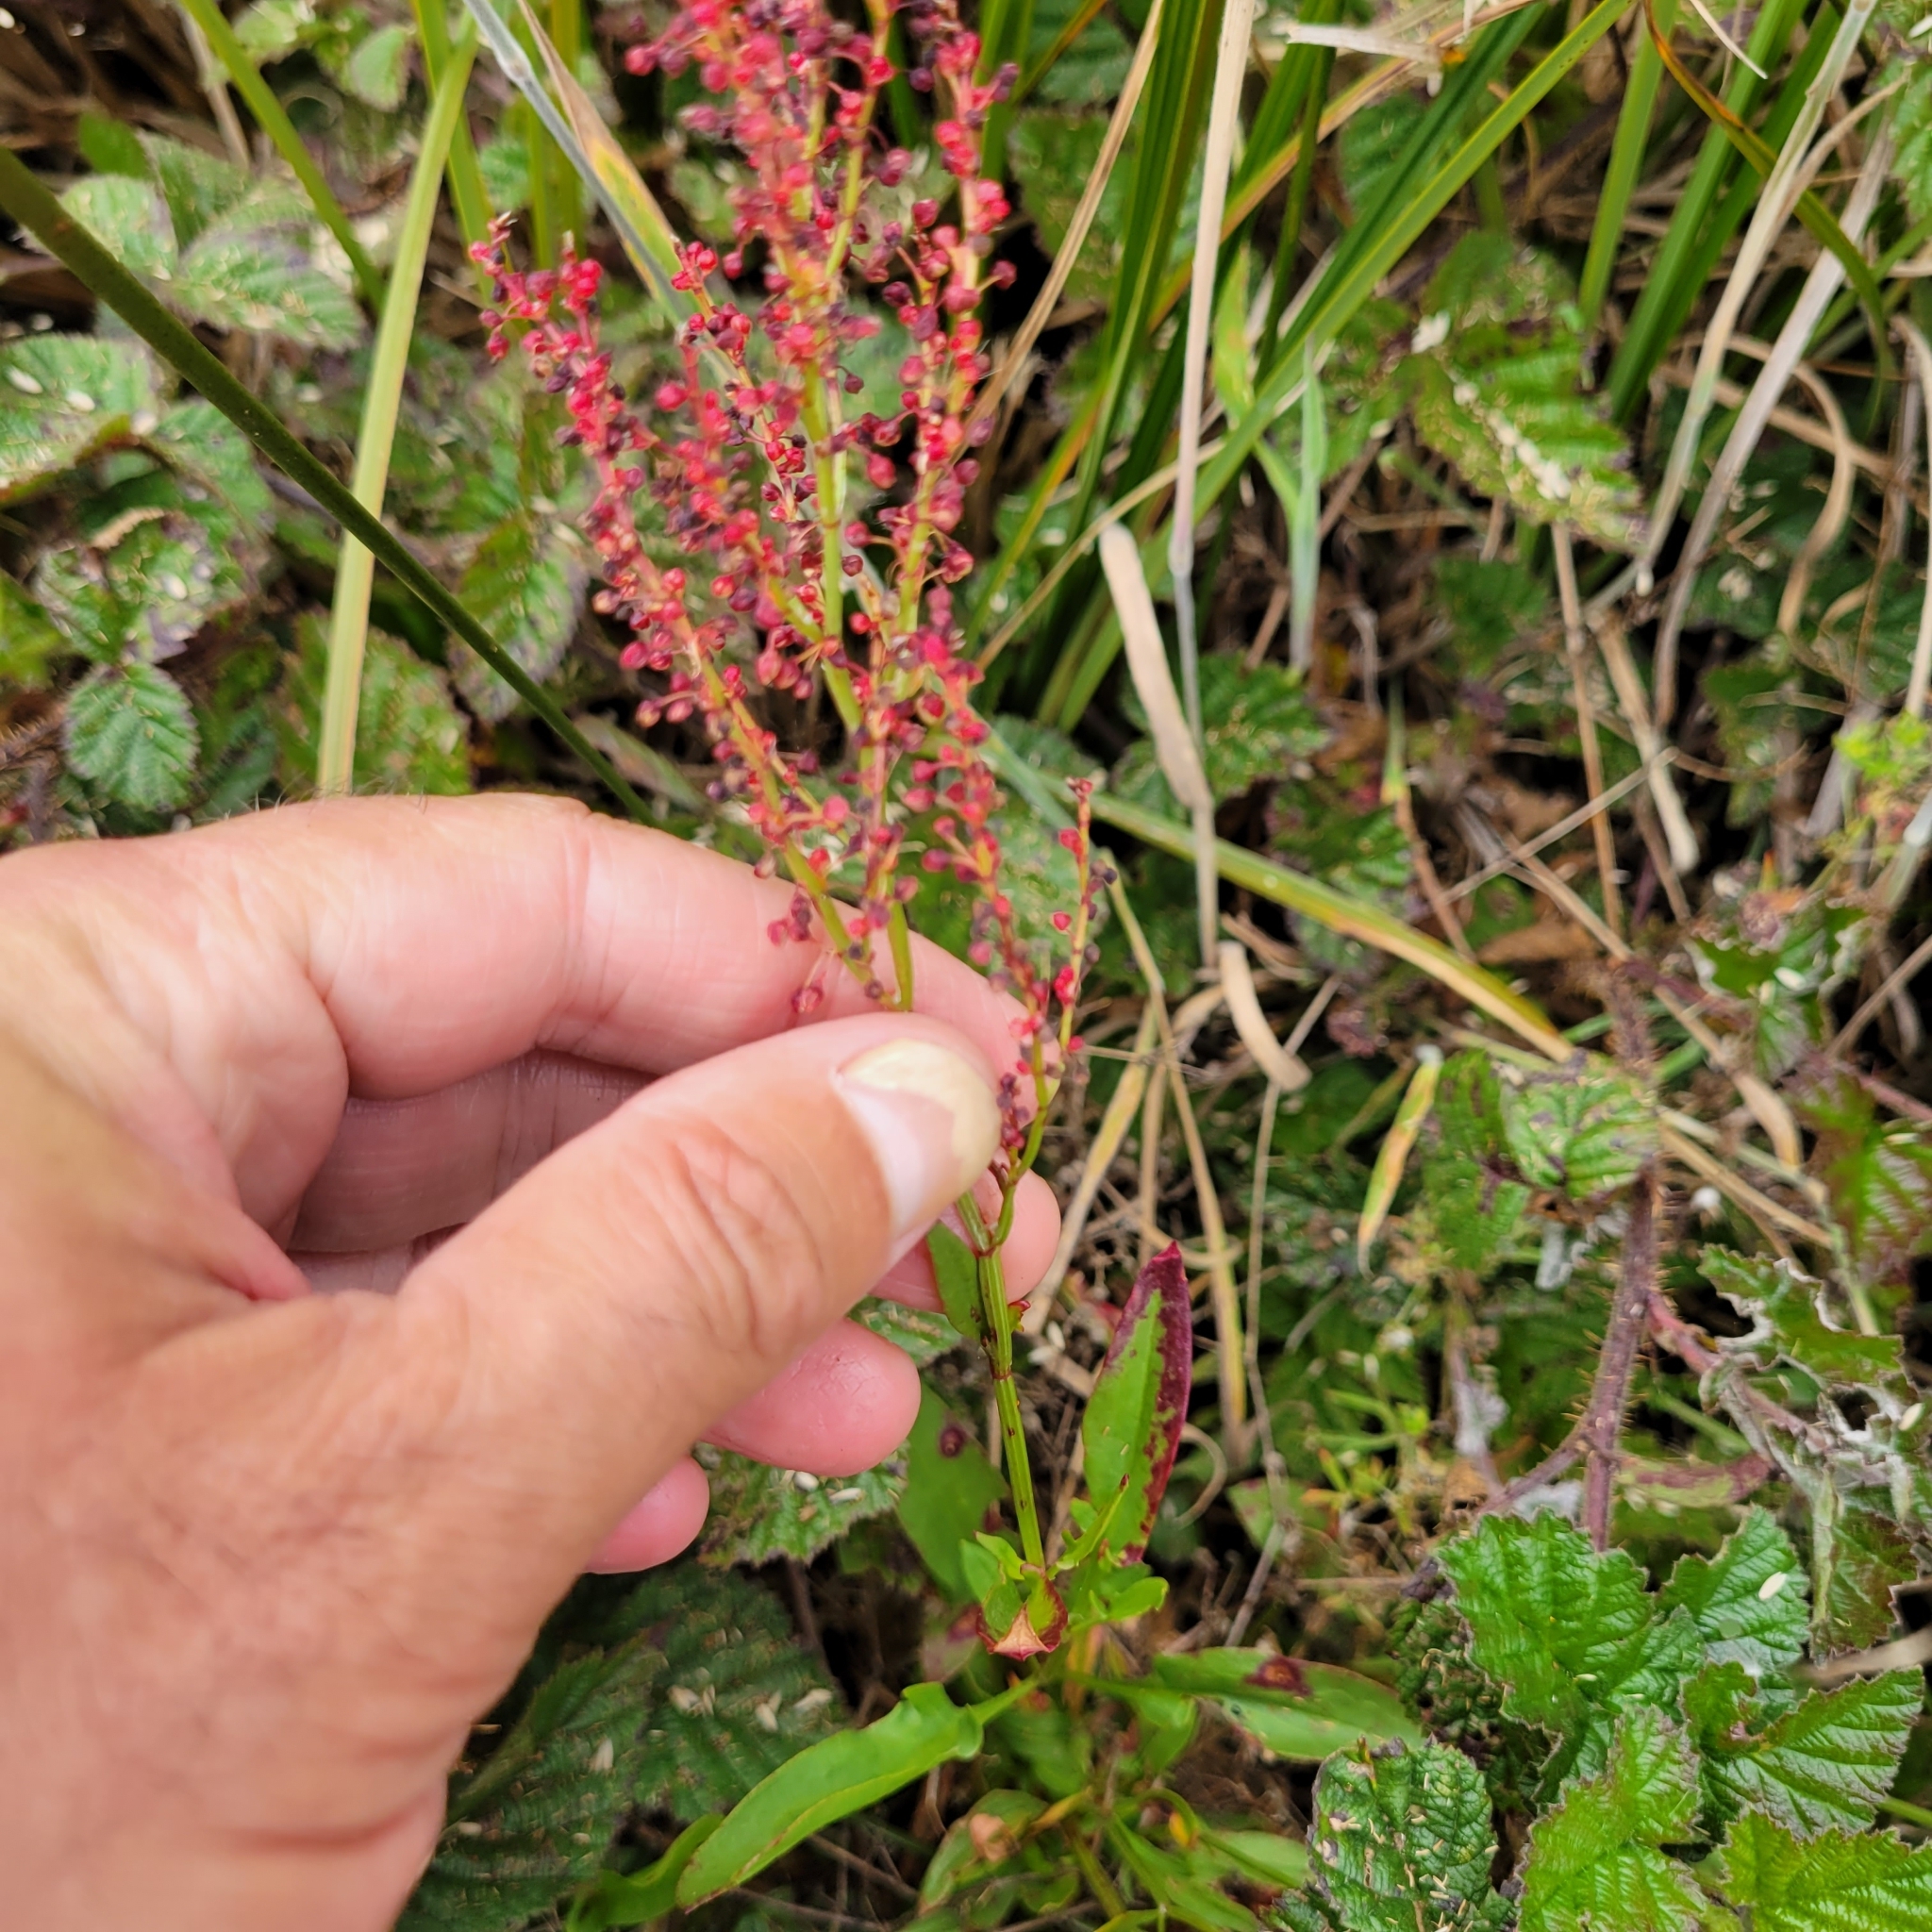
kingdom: Plantae
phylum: Tracheophyta
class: Magnoliopsida
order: Caryophyllales
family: Polygonaceae
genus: Rumex
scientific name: Rumex acetosella
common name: Common sheep sorrel
